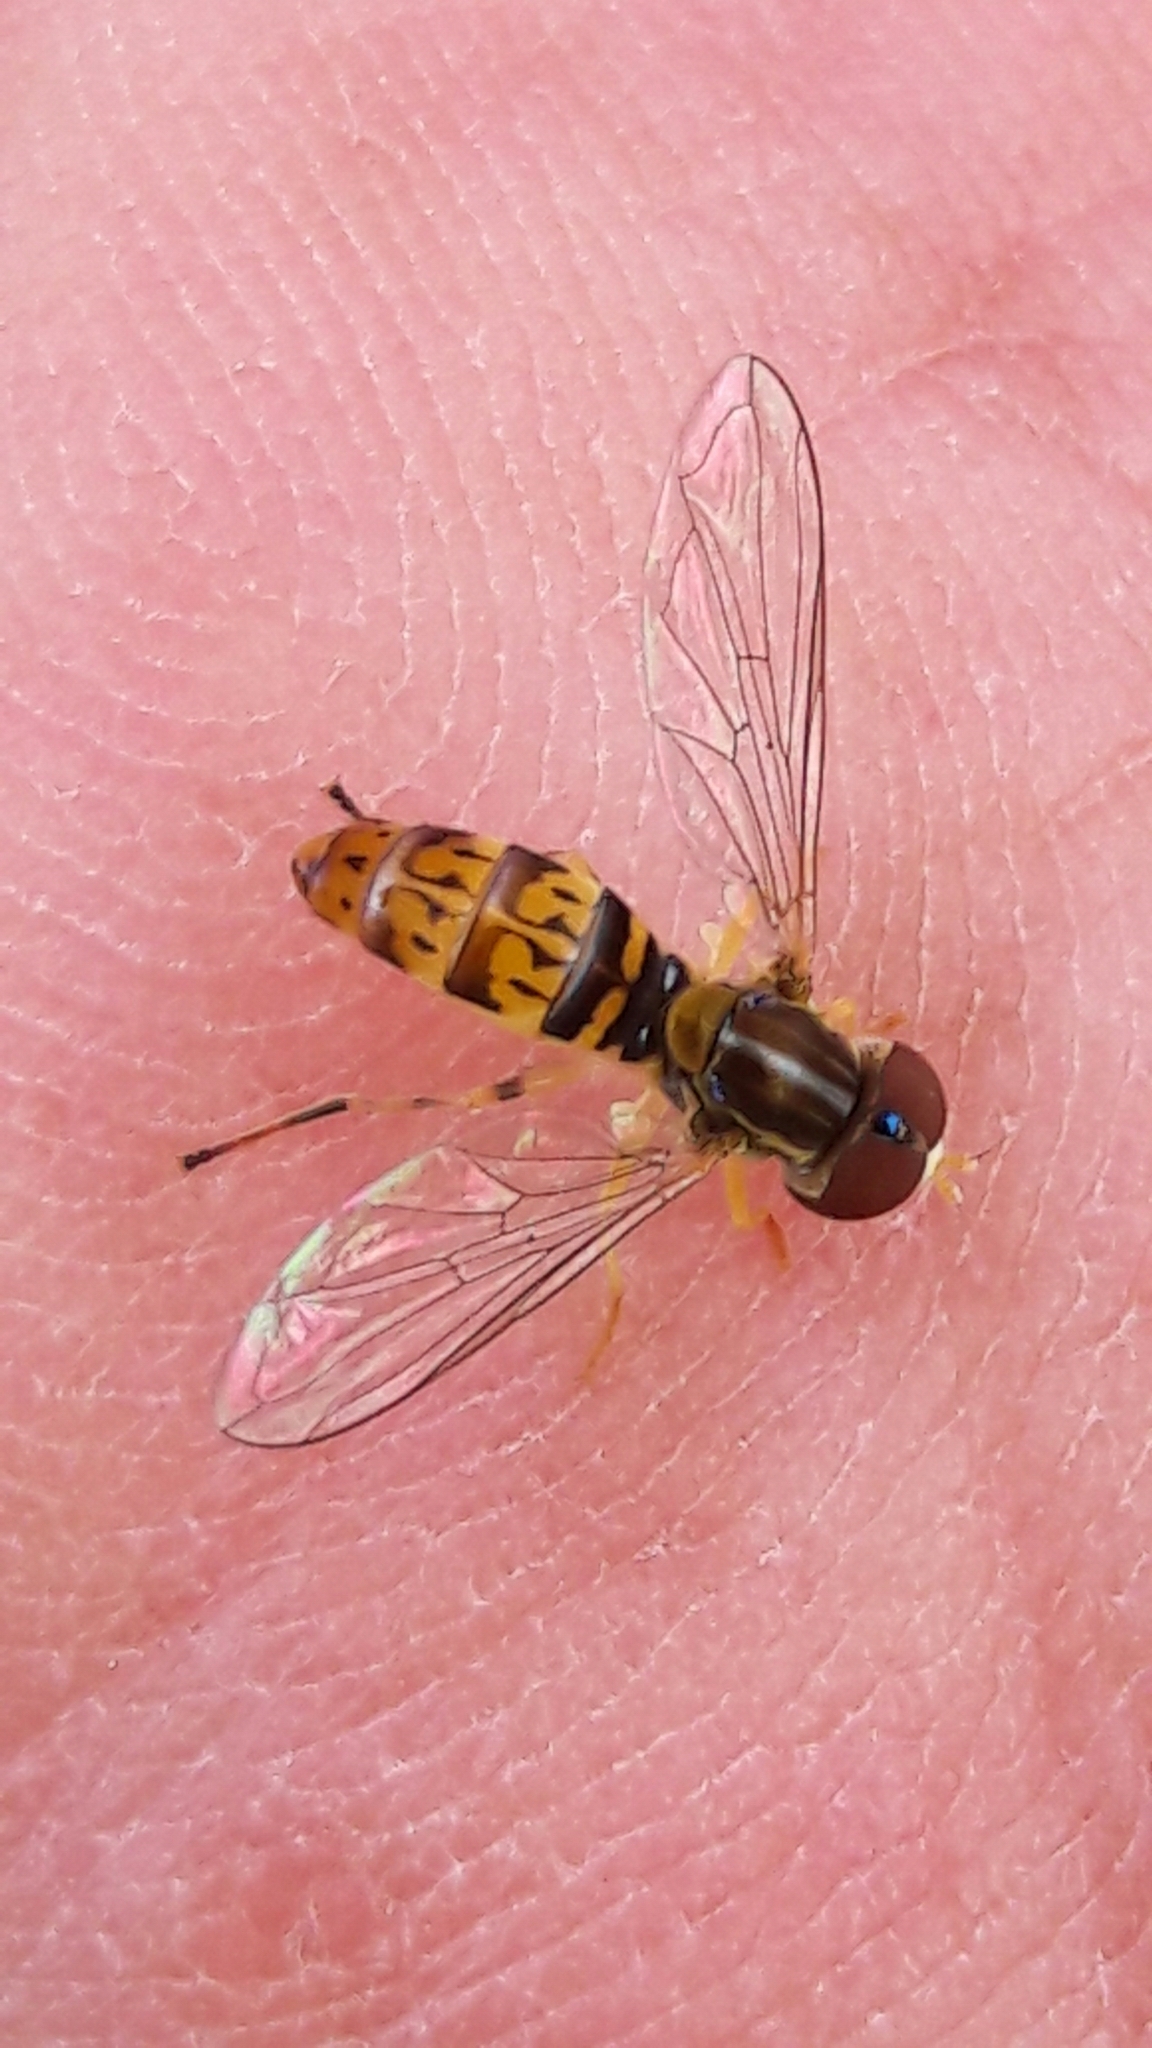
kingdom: Animalia
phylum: Arthropoda
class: Insecta
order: Diptera
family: Syrphidae
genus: Toxomerus
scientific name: Toxomerus
